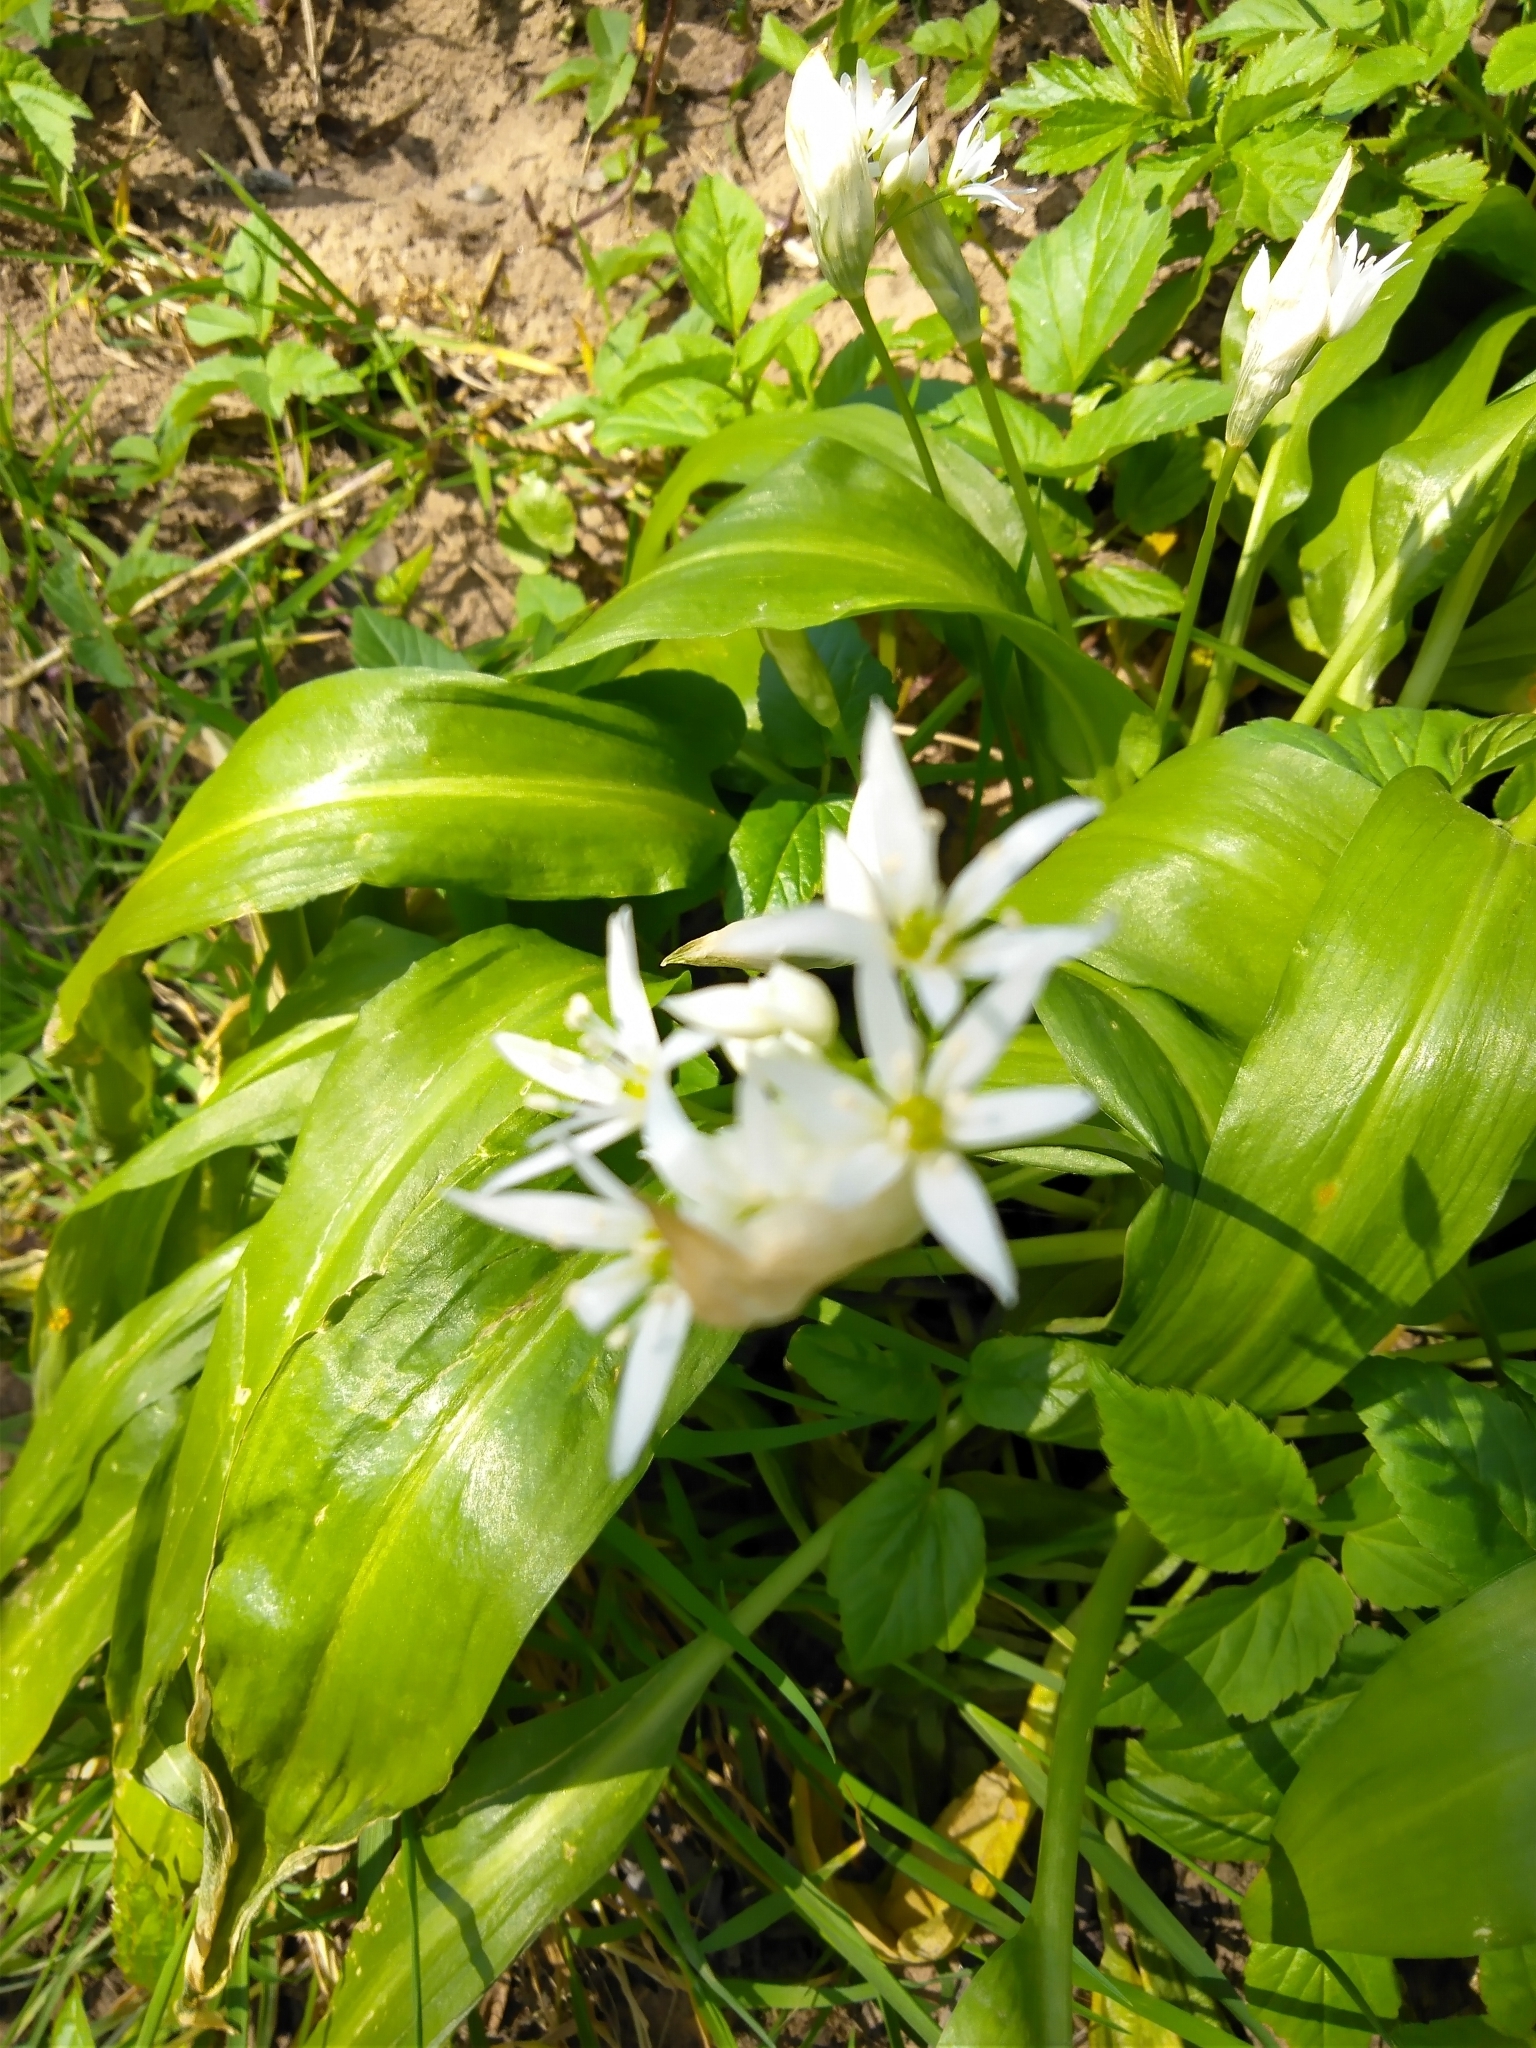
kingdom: Plantae
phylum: Tracheophyta
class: Liliopsida
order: Asparagales
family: Amaryllidaceae
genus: Allium
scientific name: Allium ursinum
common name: Ramsons
